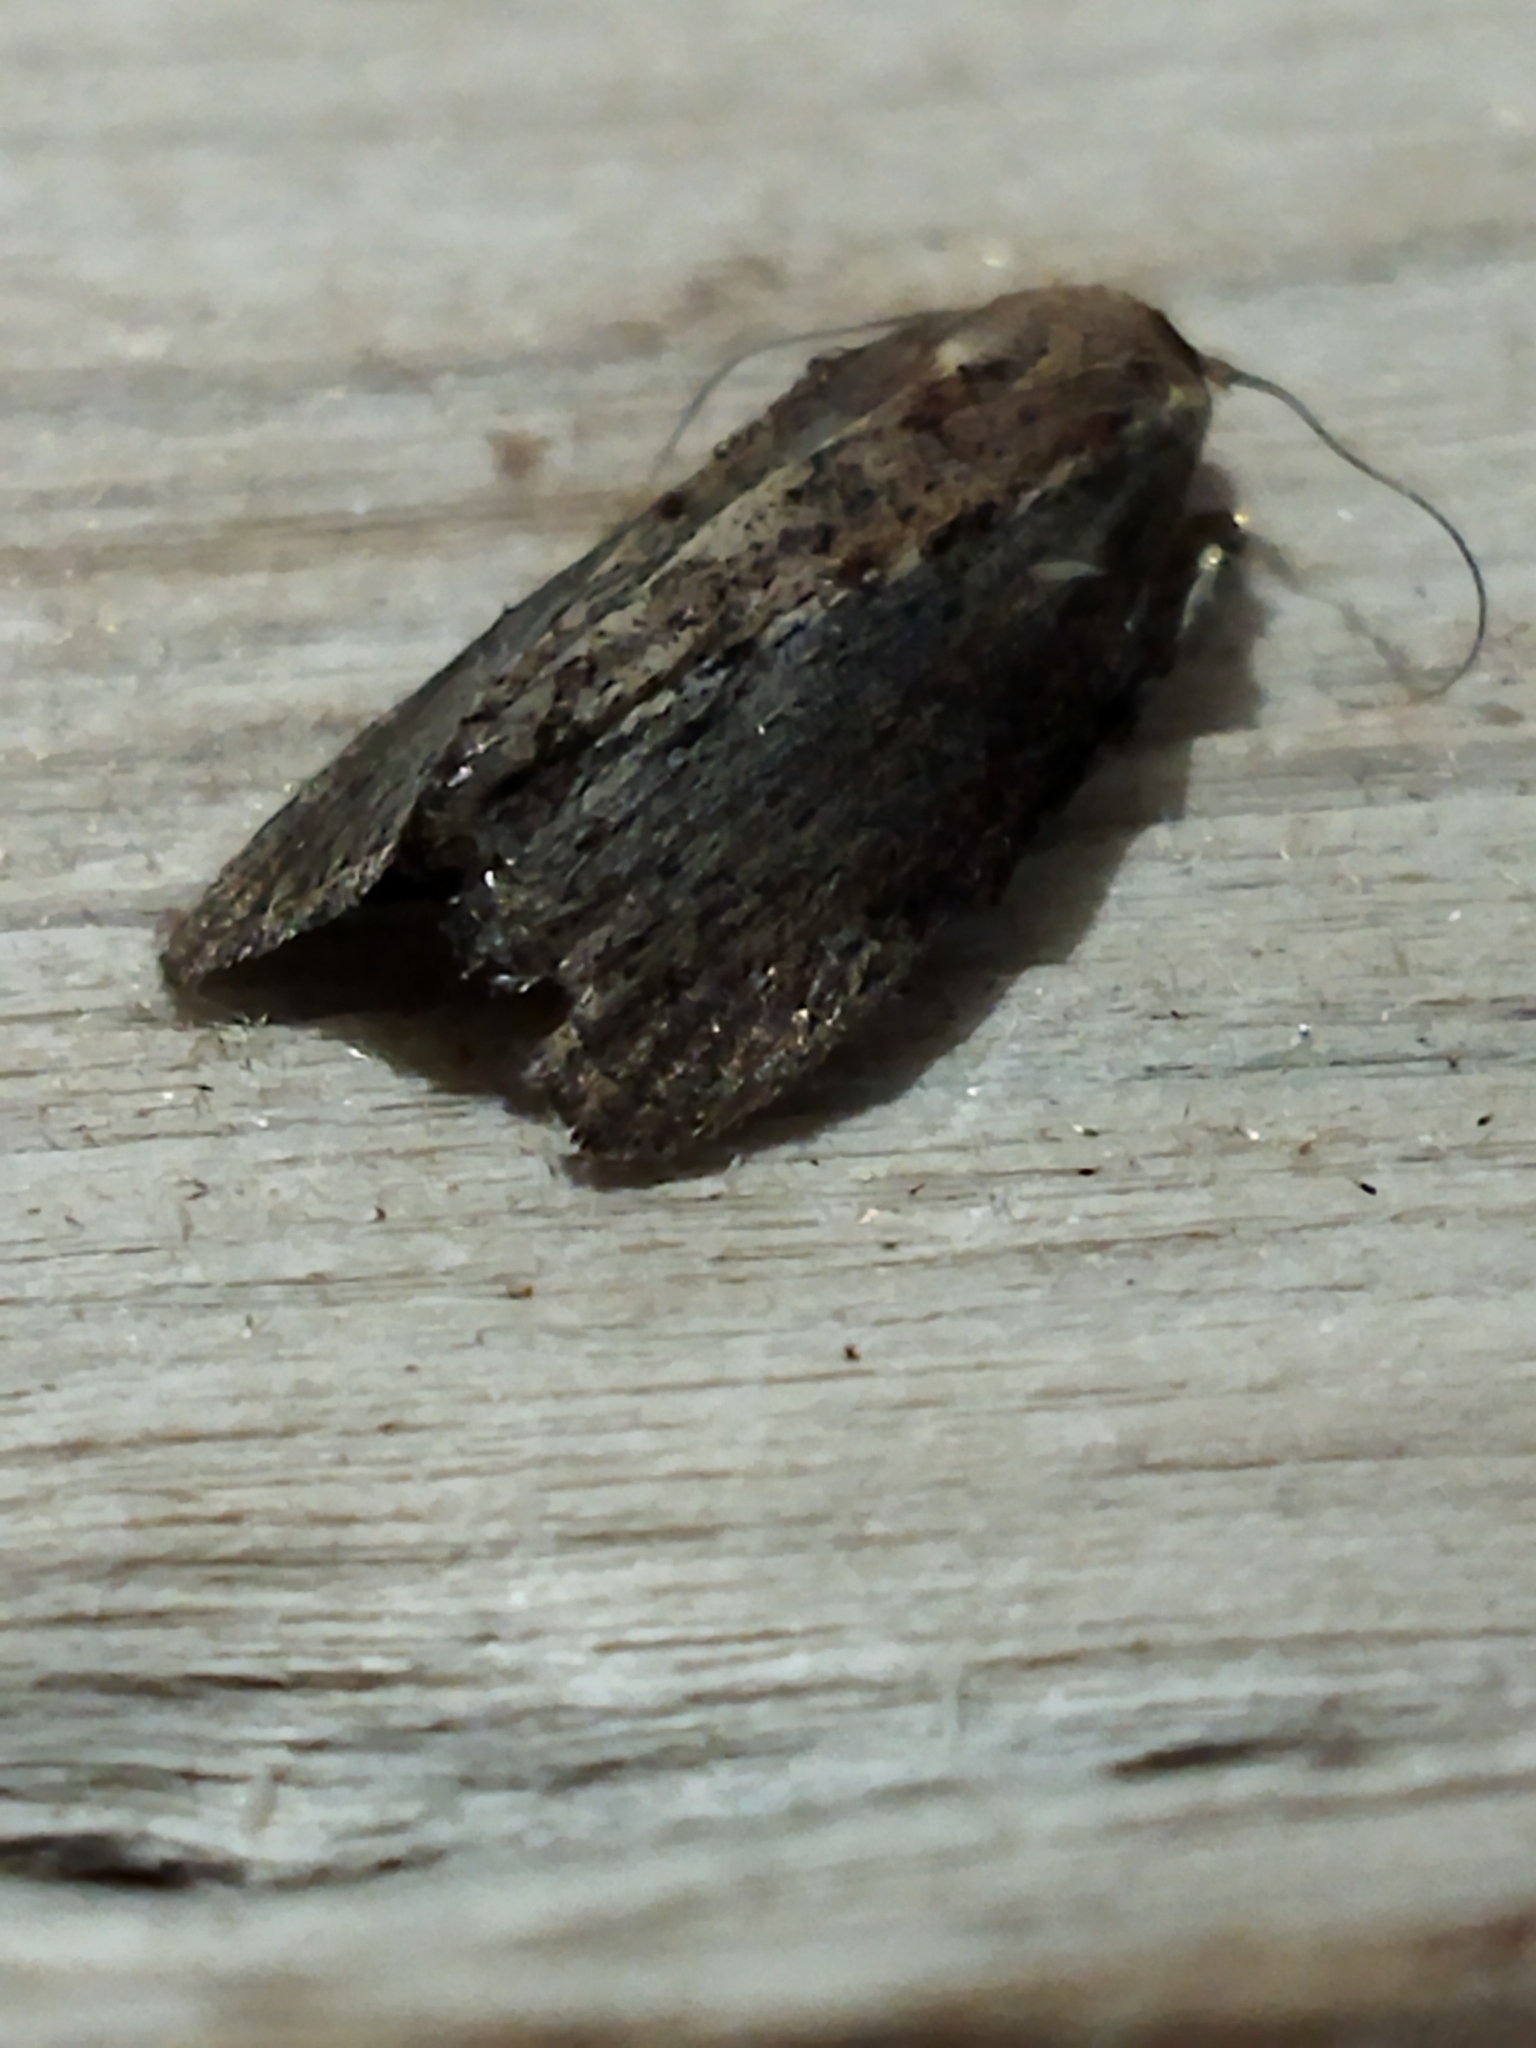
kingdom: Animalia
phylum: Arthropoda
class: Insecta
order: Lepidoptera
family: Pyralidae
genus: Galleria
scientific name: Galleria mellonella
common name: Greater wax moth
